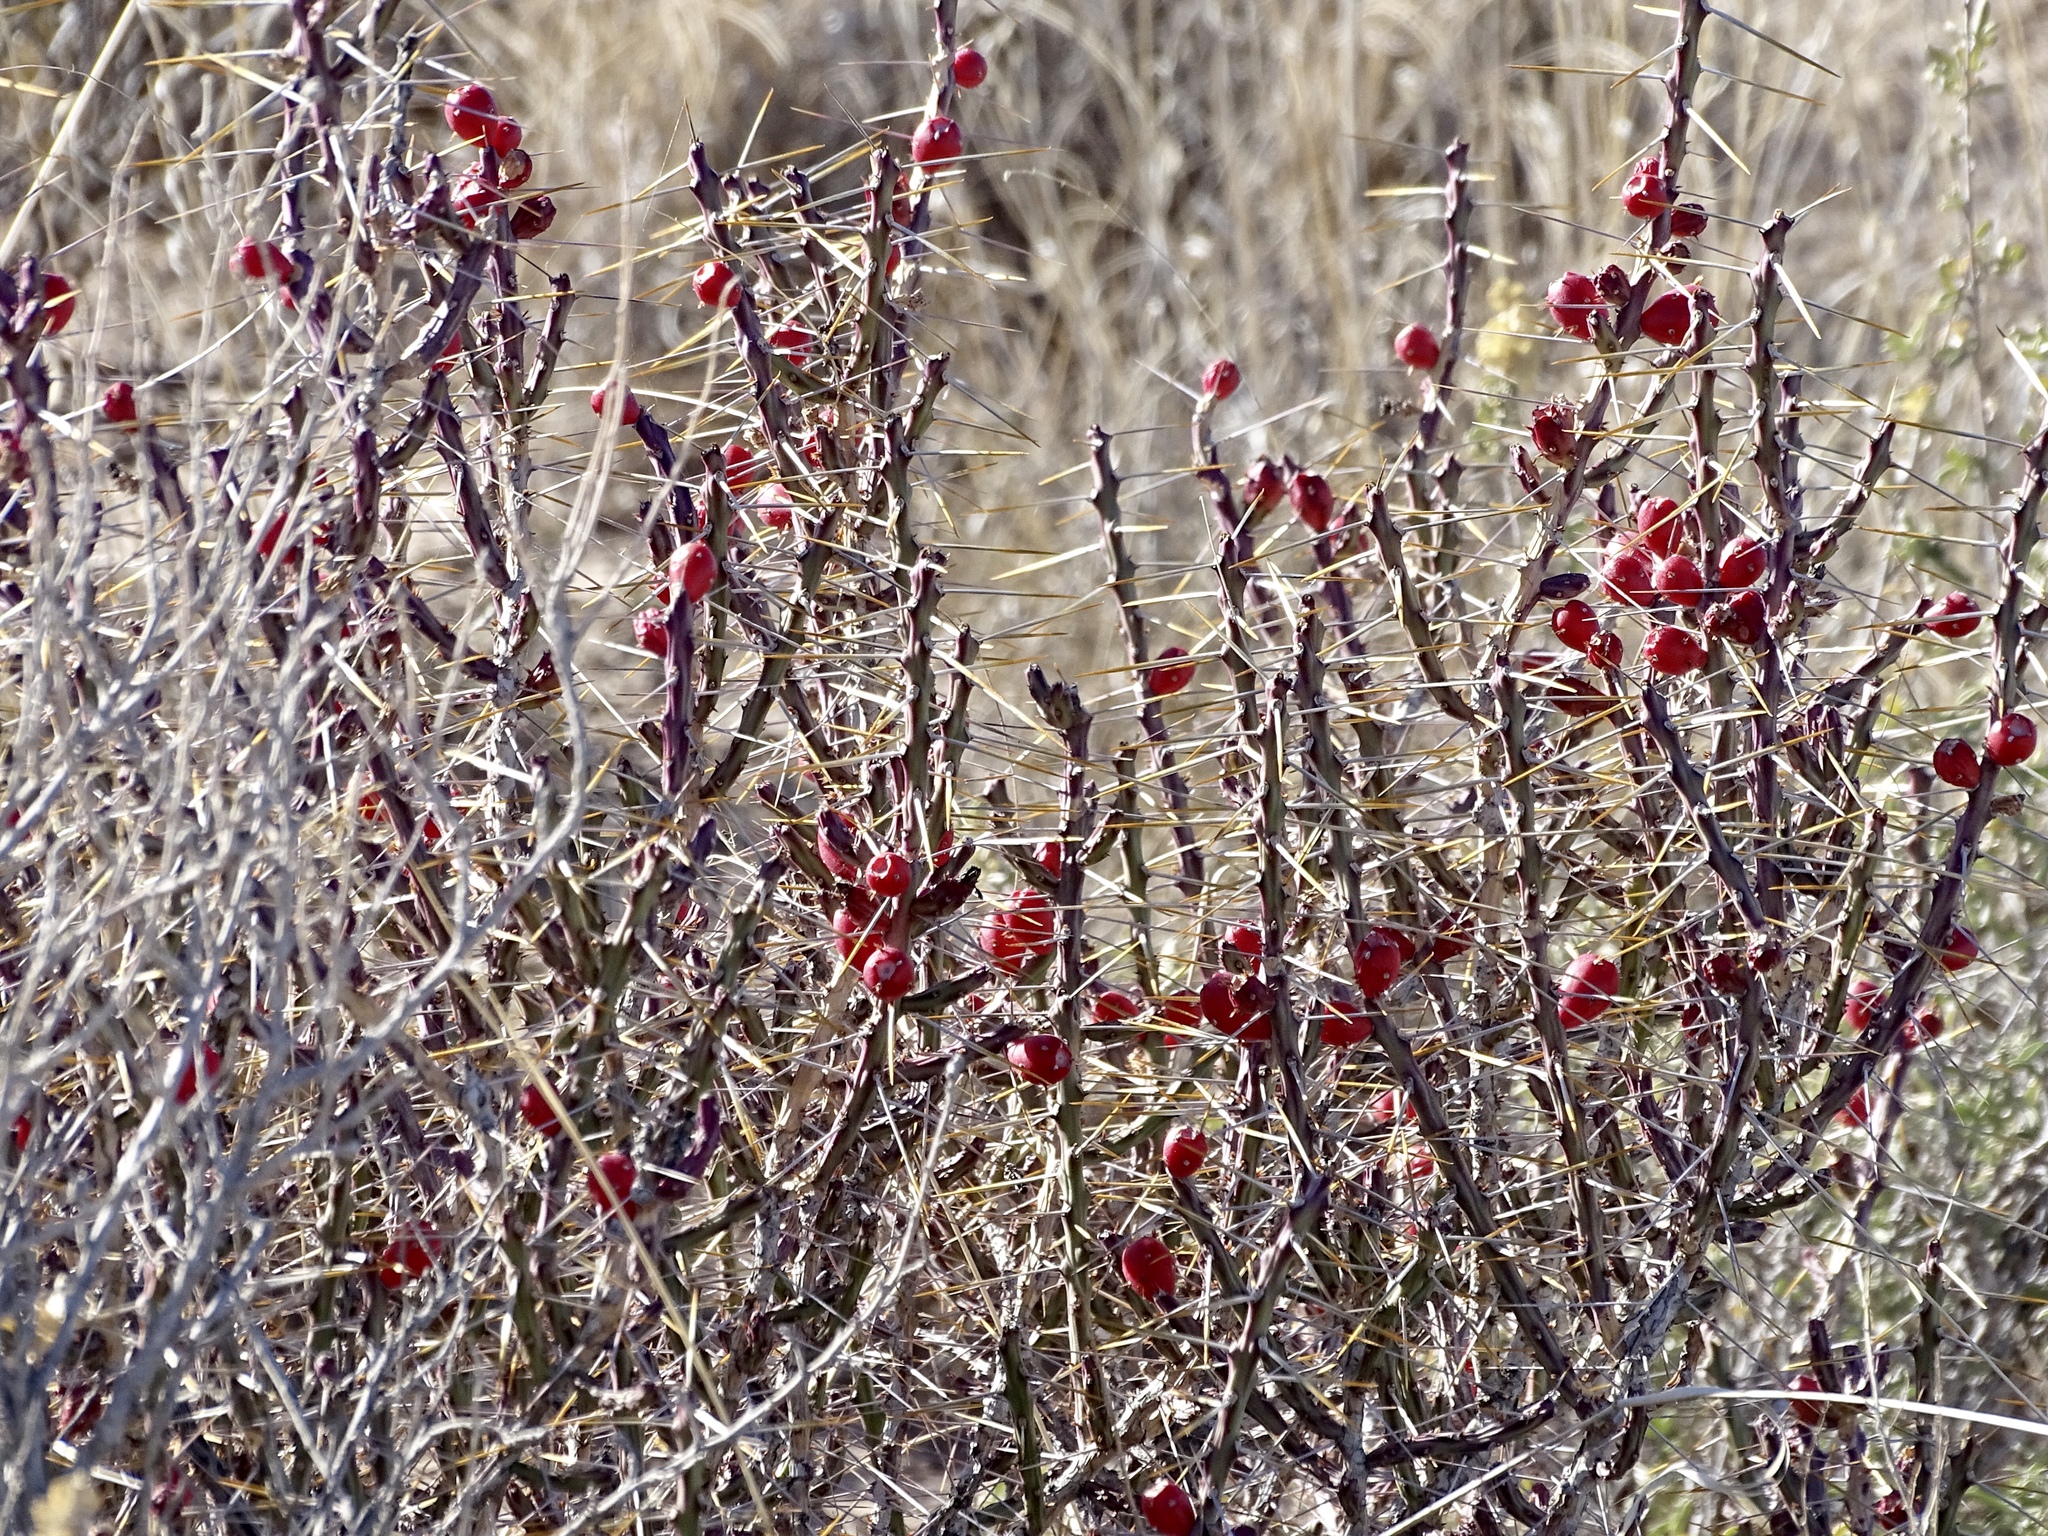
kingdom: Plantae
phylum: Tracheophyta
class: Magnoliopsida
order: Caryophyllales
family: Cactaceae
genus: Cylindropuntia
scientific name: Cylindropuntia leptocaulis
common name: Christmas cactus
